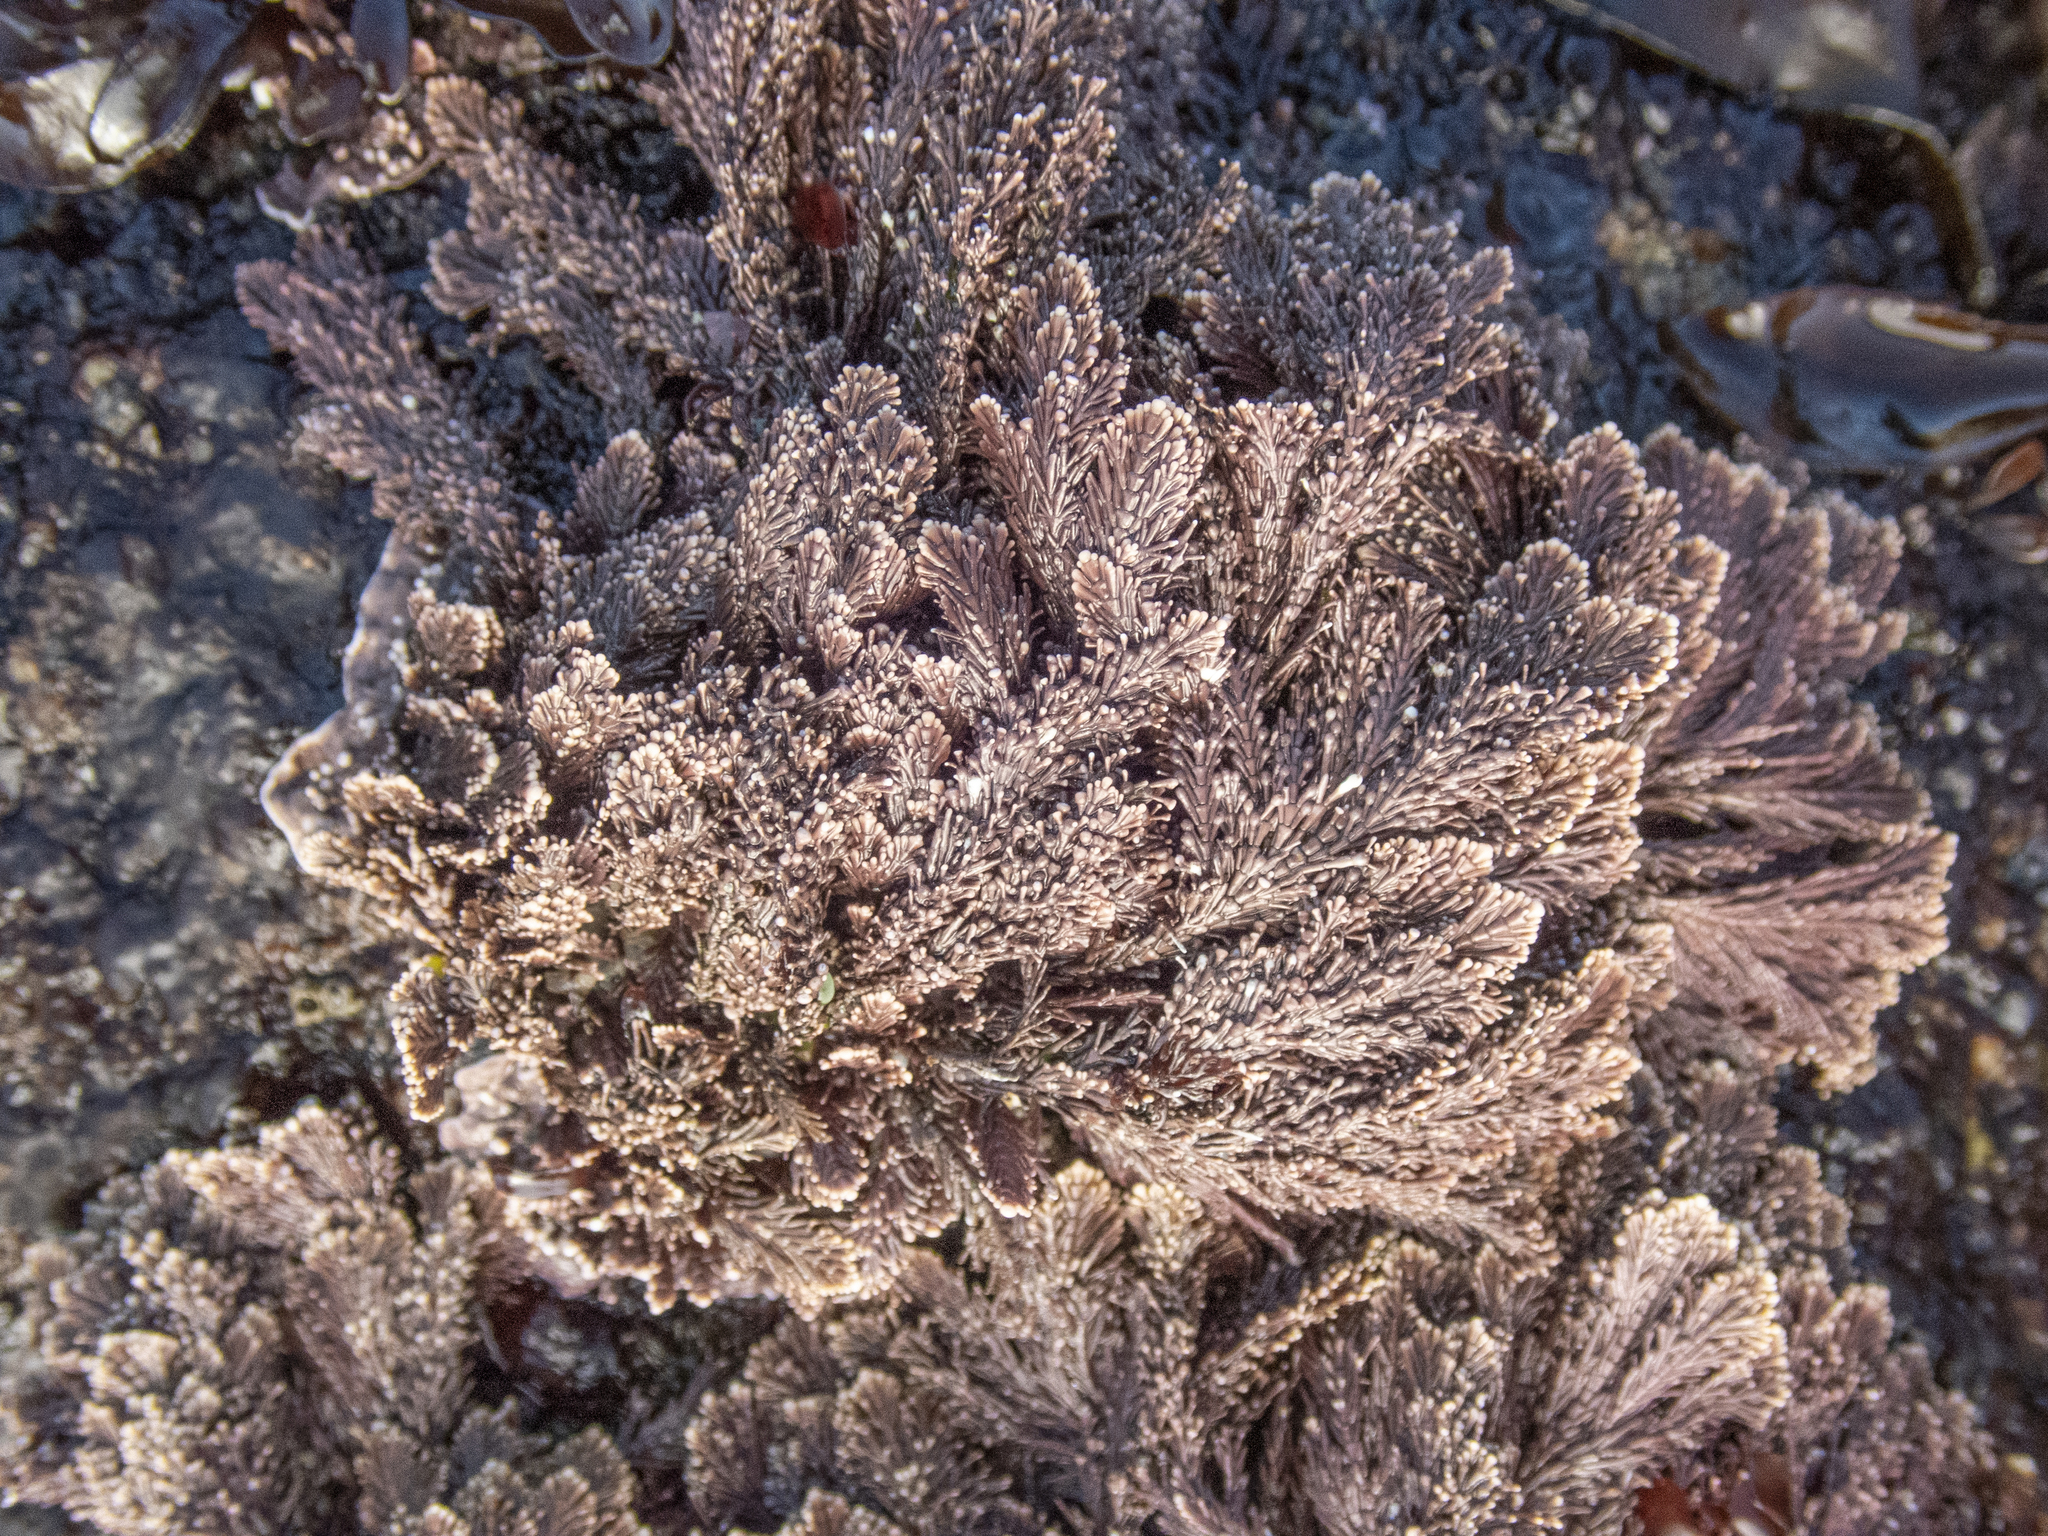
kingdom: Plantae
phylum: Rhodophyta
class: Florideophyceae
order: Corallinales
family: Corallinaceae
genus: Corallina
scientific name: Corallina vancouveriensis
